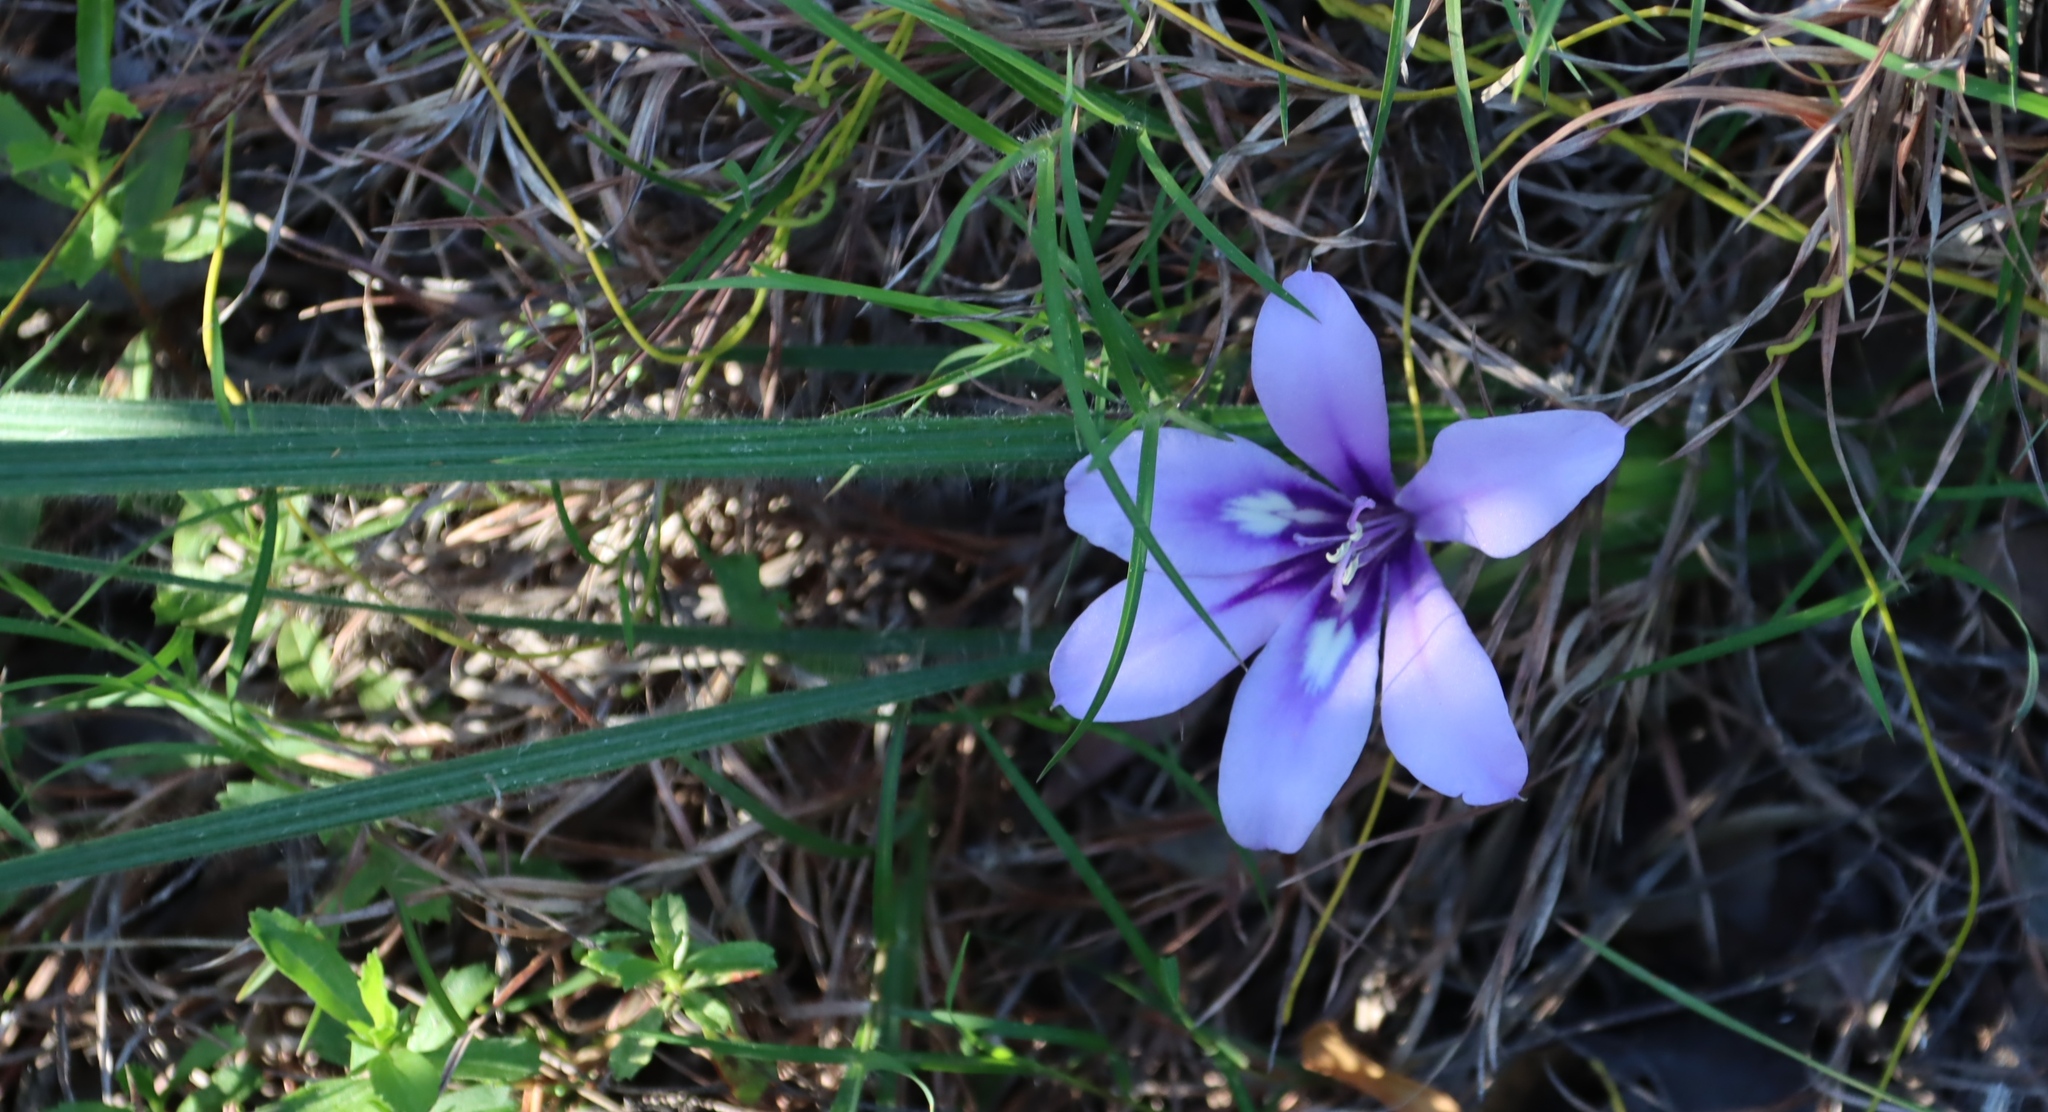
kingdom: Plantae
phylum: Tracheophyta
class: Liliopsida
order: Asparagales
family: Iridaceae
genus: Babiana
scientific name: Babiana sambucina
